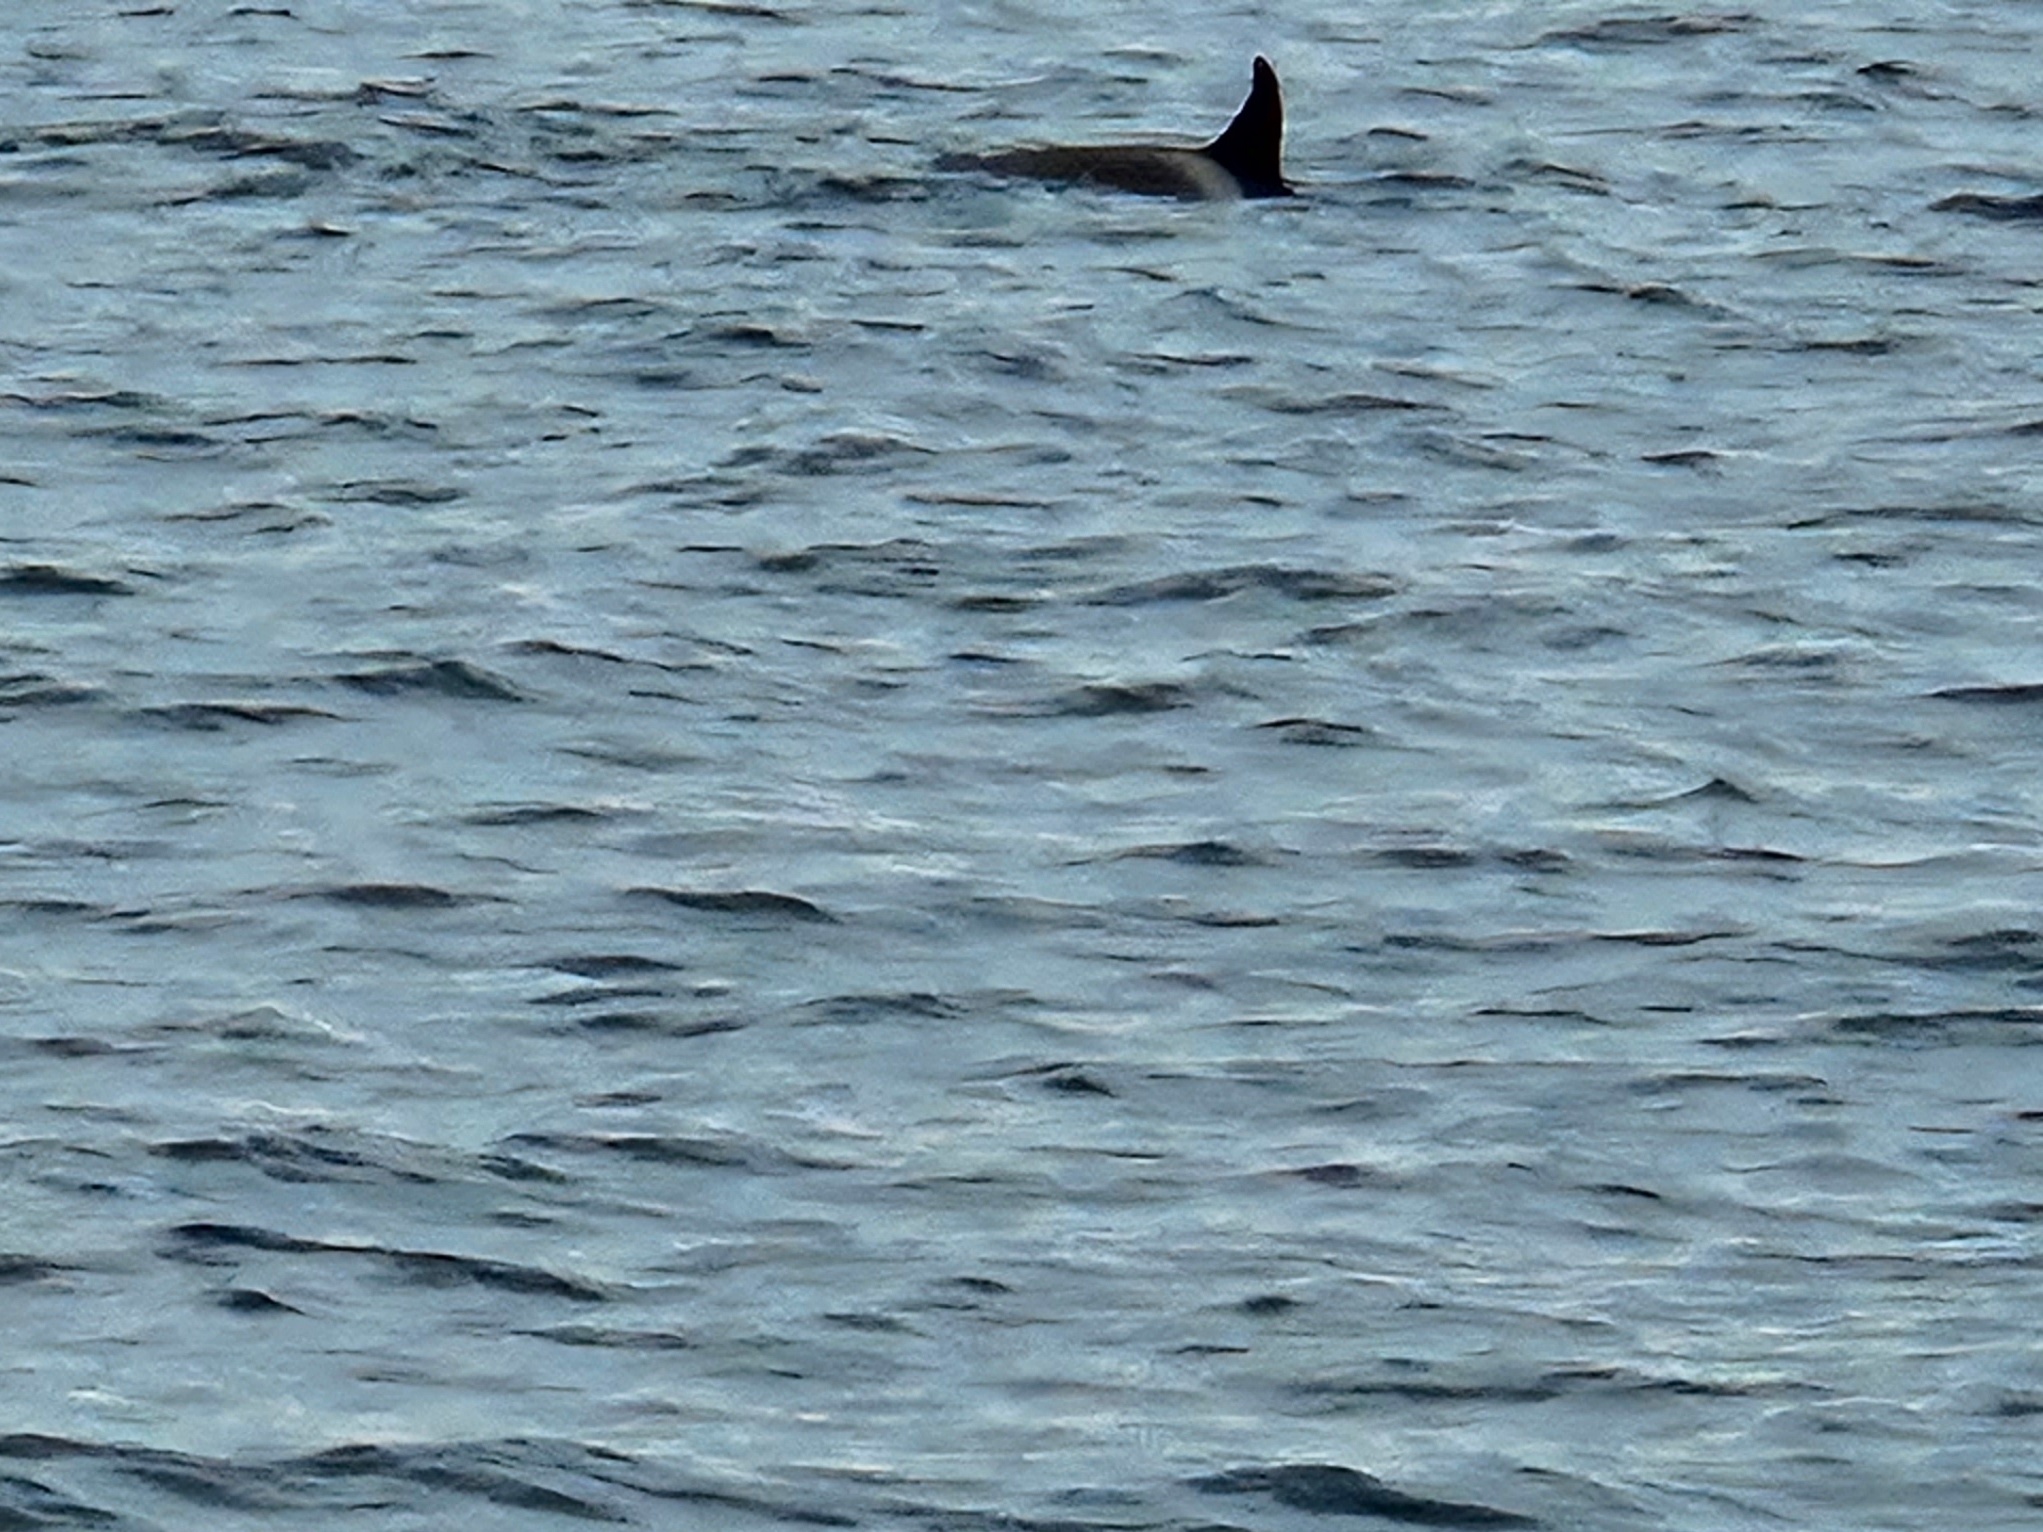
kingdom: Animalia
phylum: Chordata
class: Mammalia
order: Cetacea
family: Delphinidae
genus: Orcinus
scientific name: Orcinus orca
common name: Killer whale
